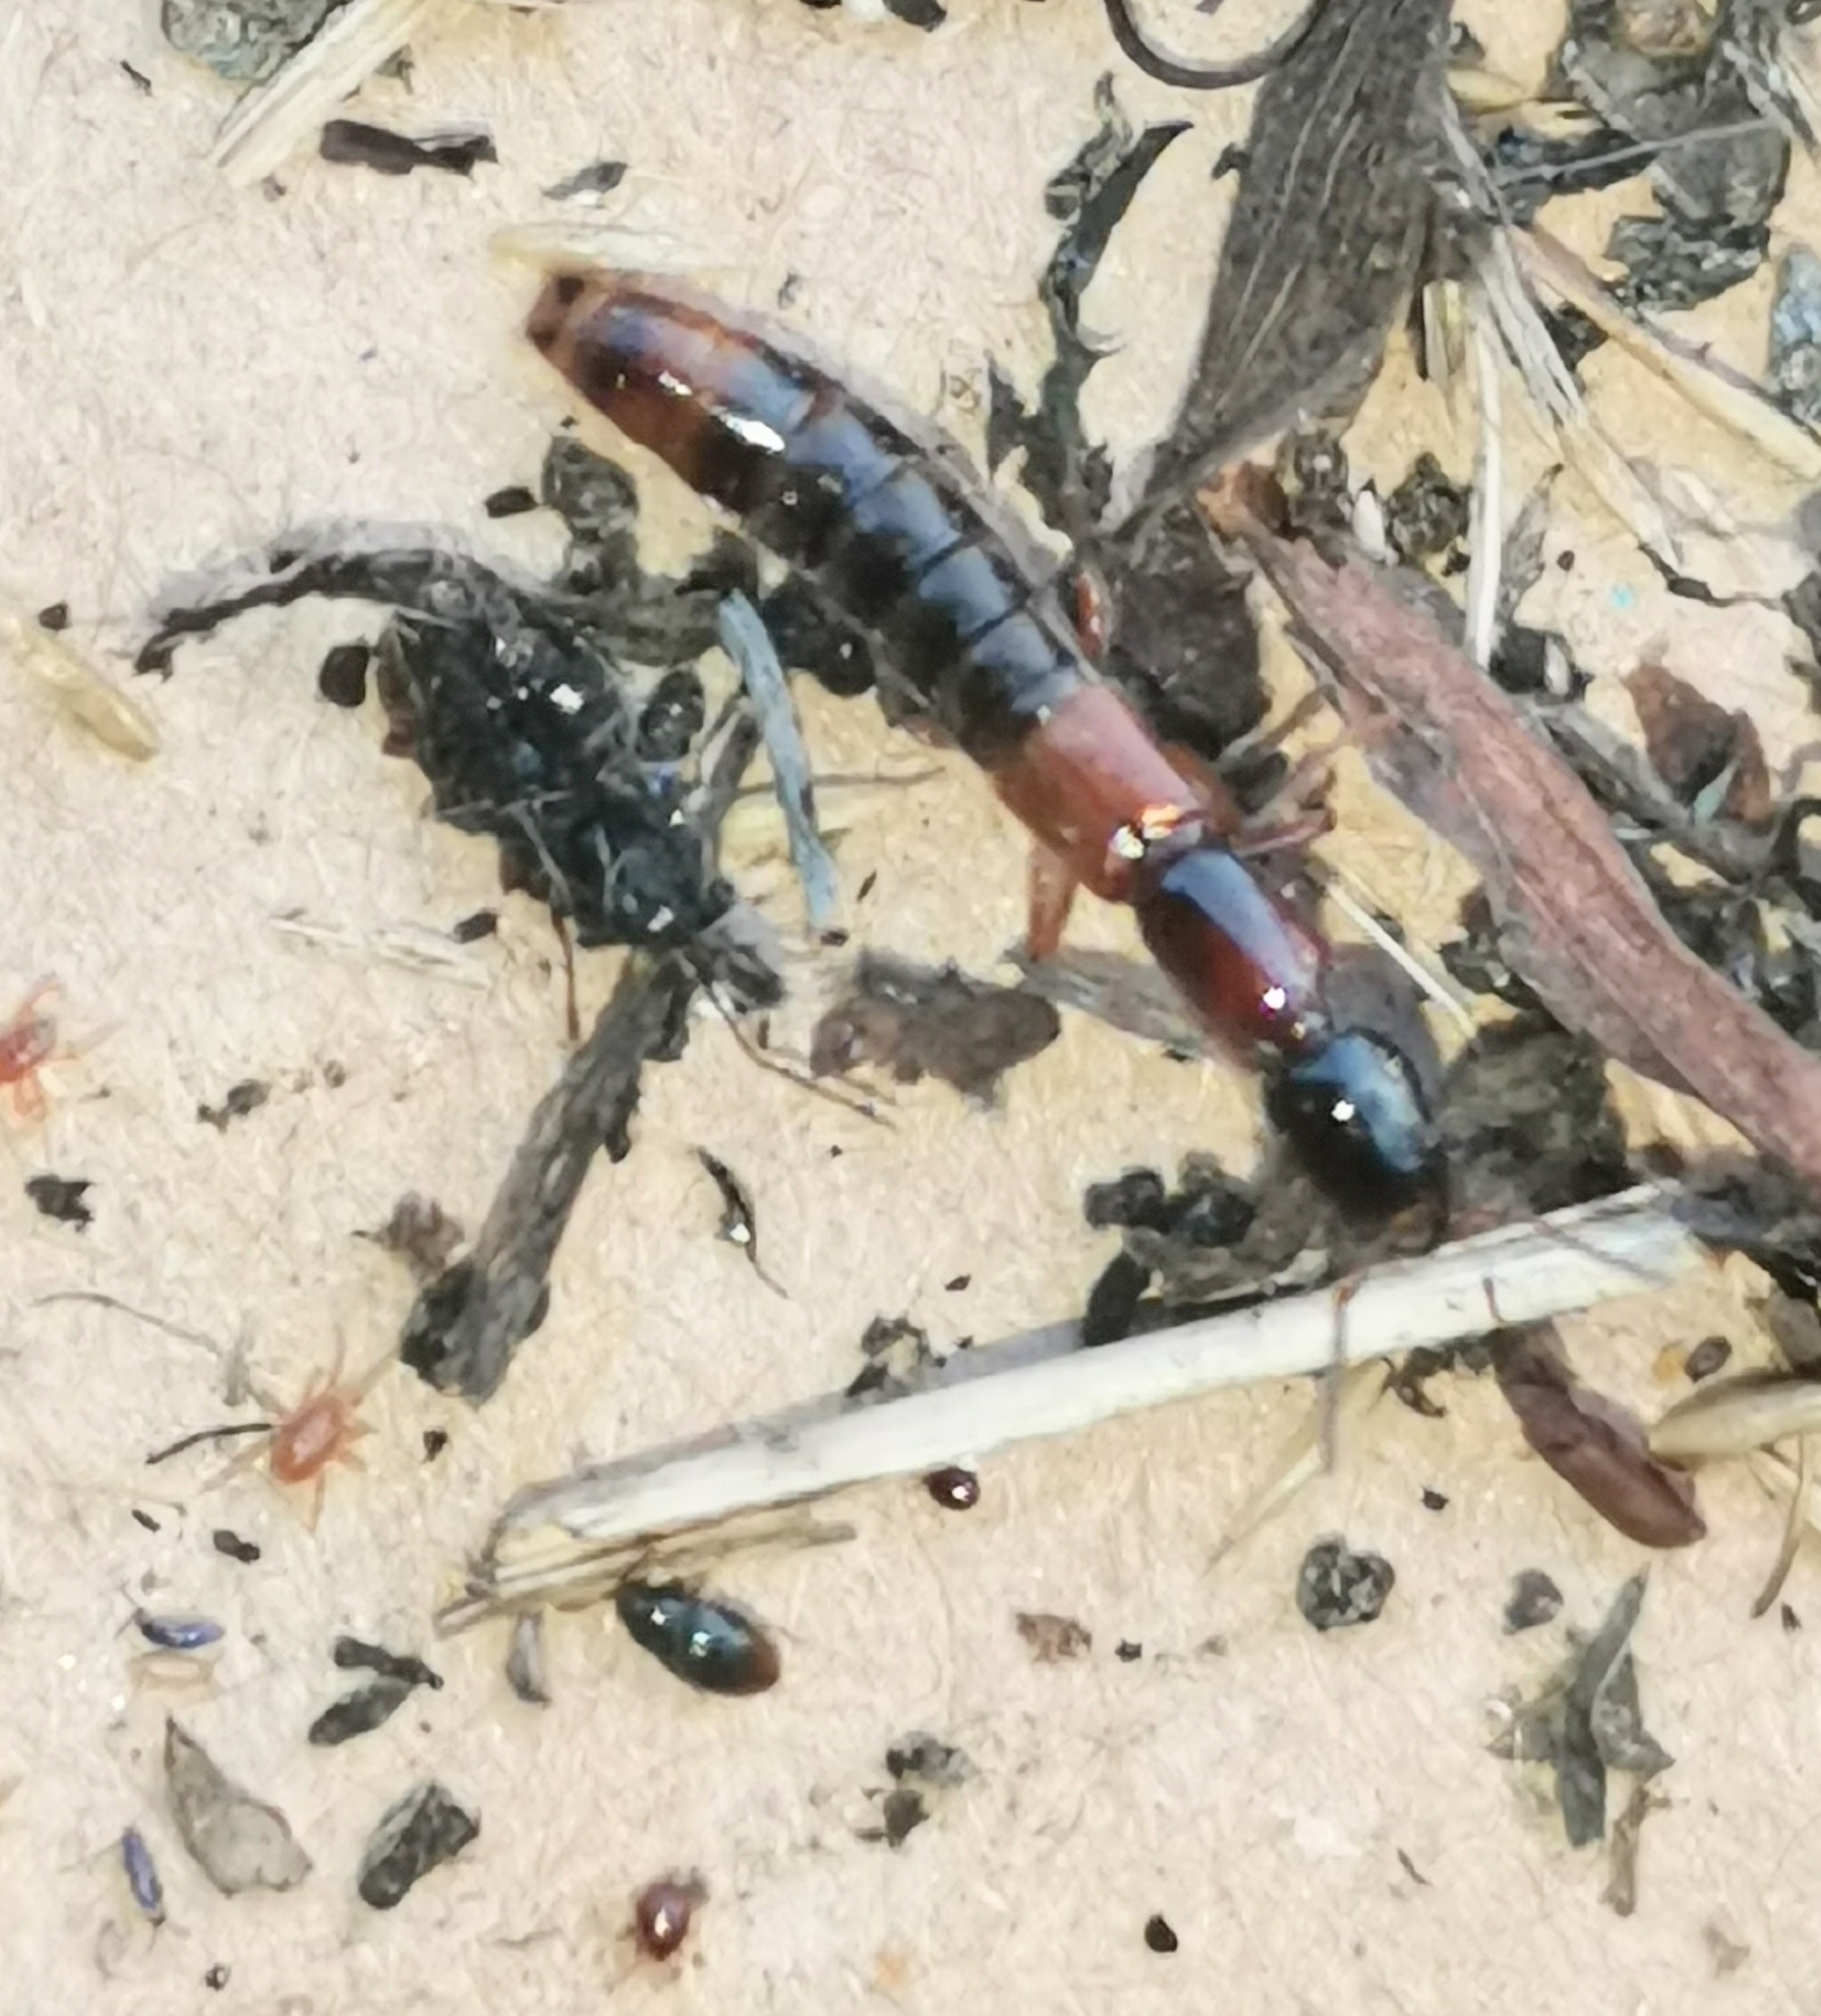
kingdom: Animalia
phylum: Arthropoda
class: Insecta
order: Coleoptera
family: Staphylinidae
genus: Xantholinus
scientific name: Xantholinus tricolor
